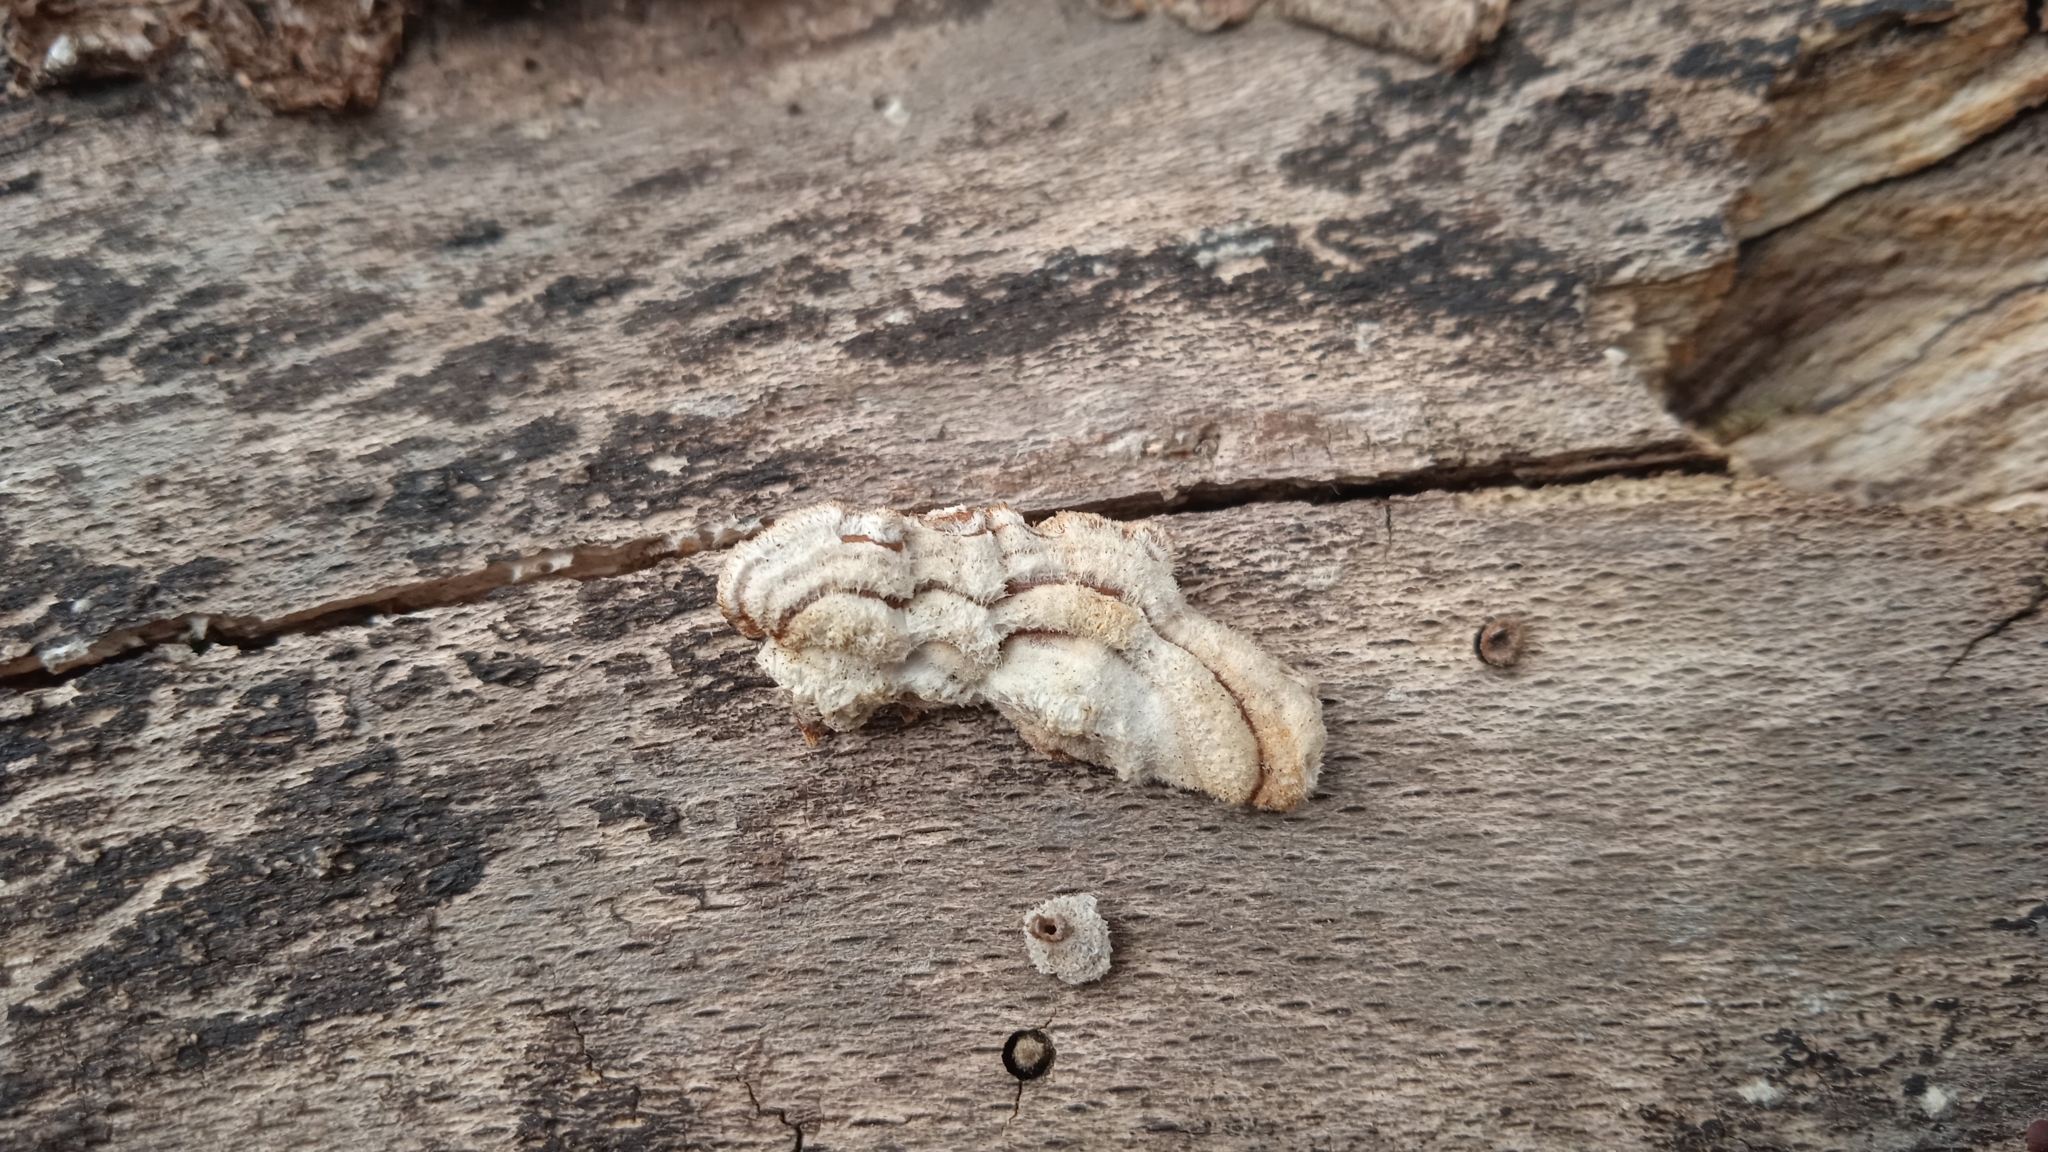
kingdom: Fungi
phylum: Basidiomycota
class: Agaricomycetes
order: Russulales
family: Stereaceae
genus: Stereum
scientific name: Stereum hirsutum
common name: Hairy curtain crust
